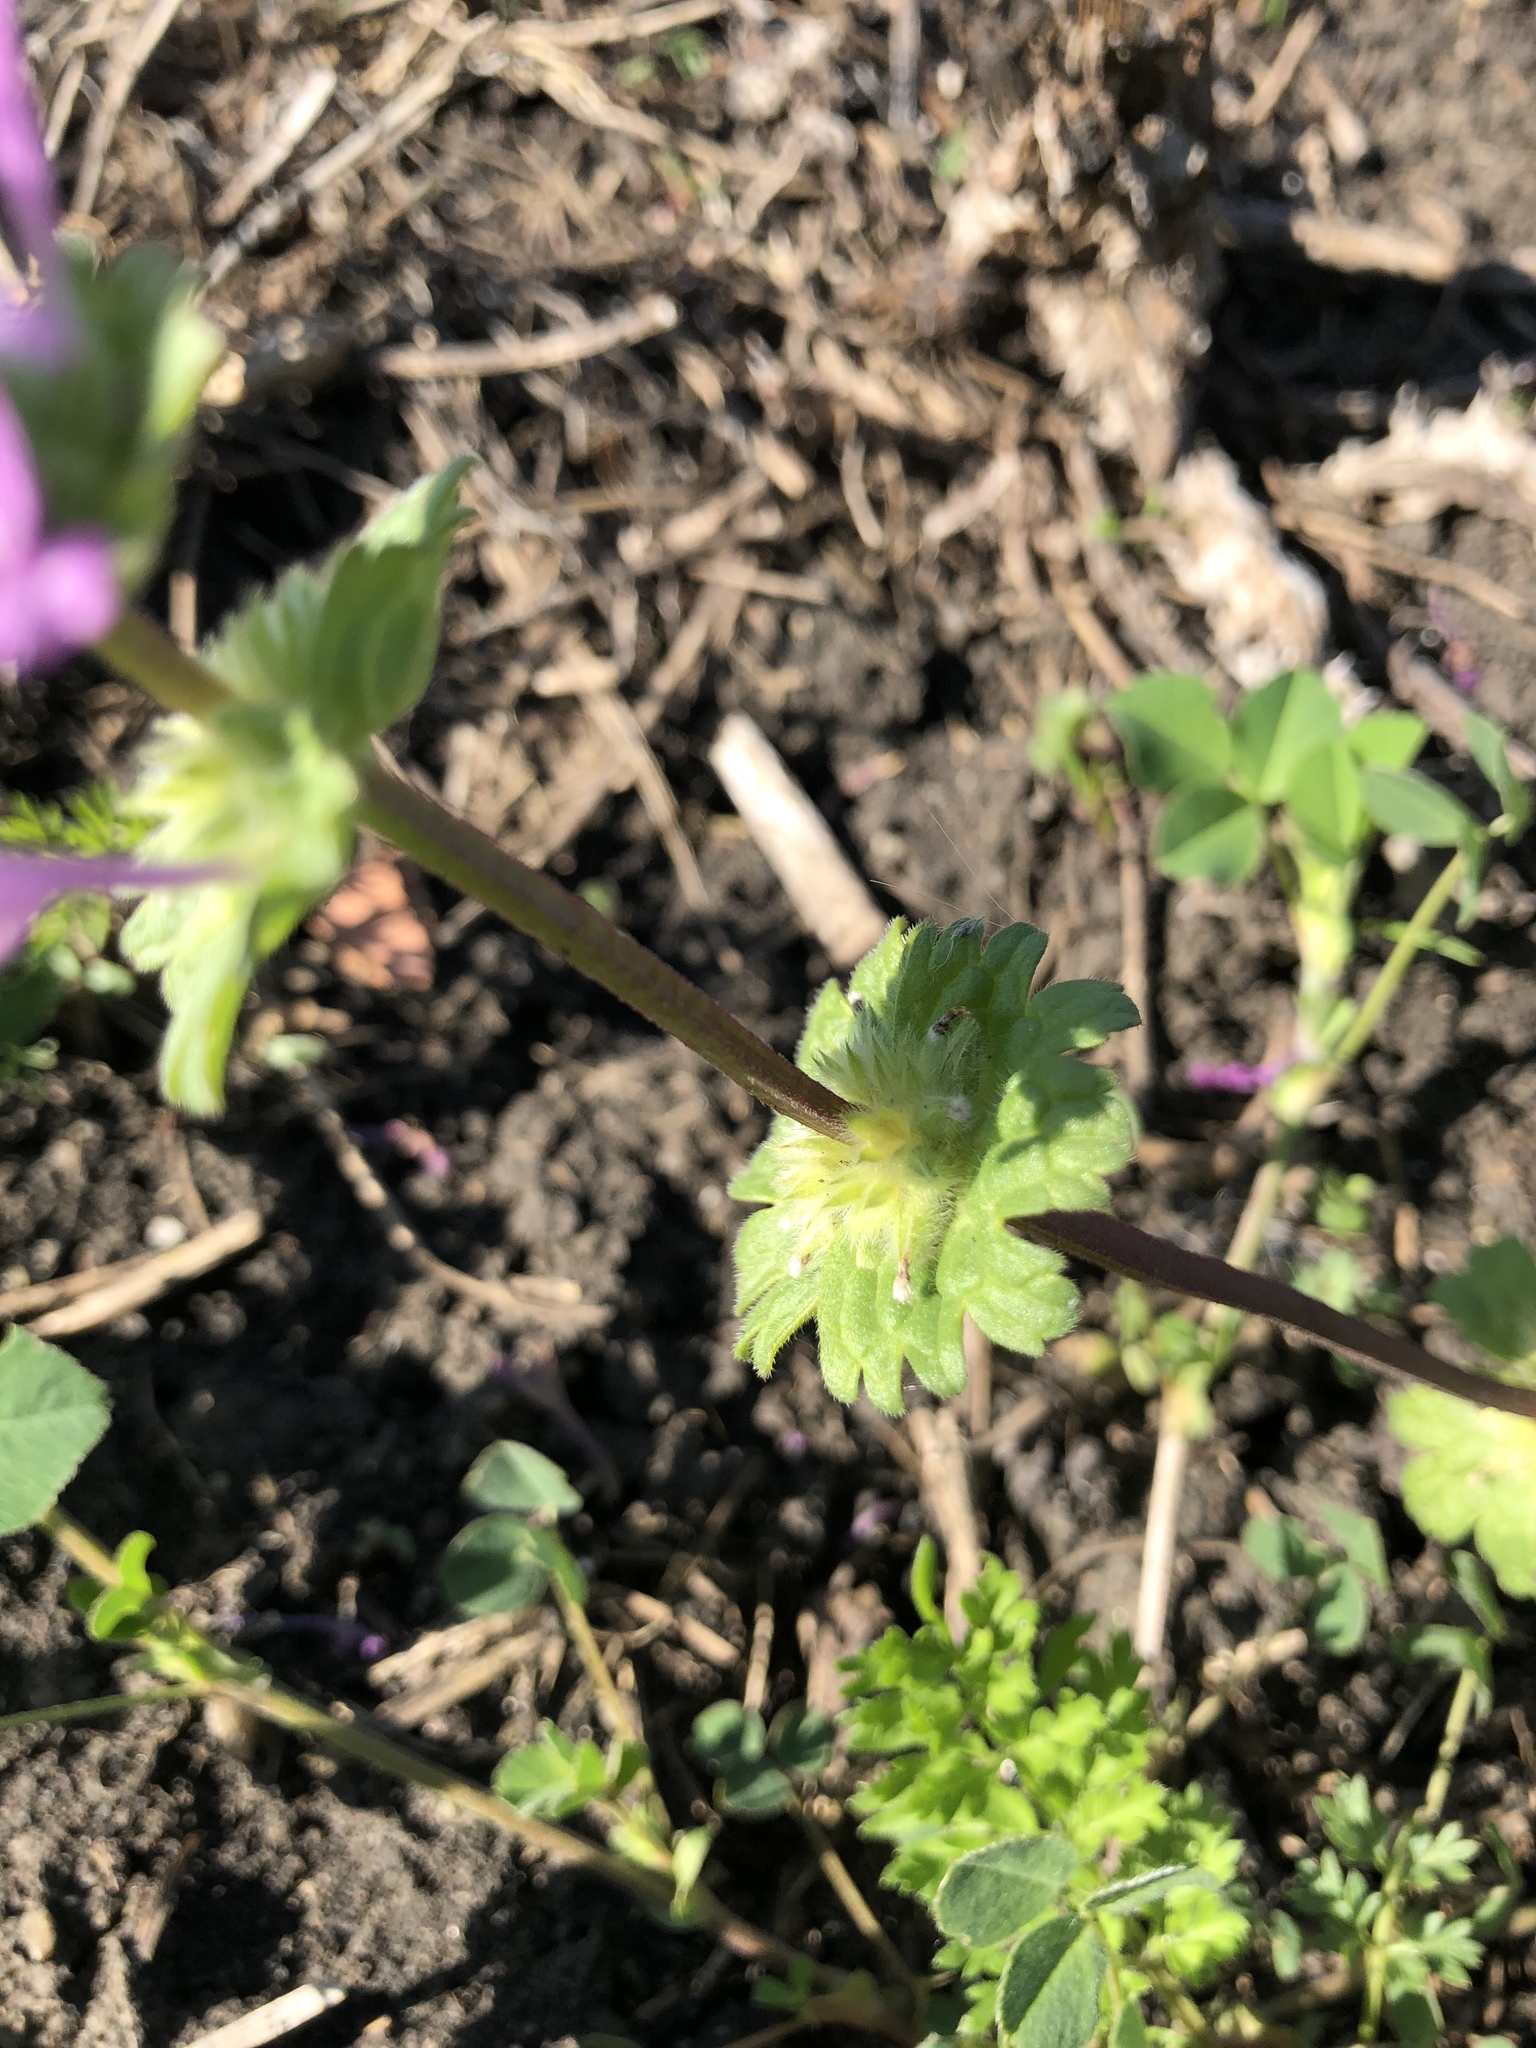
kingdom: Plantae
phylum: Tracheophyta
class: Magnoliopsida
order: Lamiales
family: Lamiaceae
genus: Lamium
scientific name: Lamium amplexicaule
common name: Henbit dead-nettle
